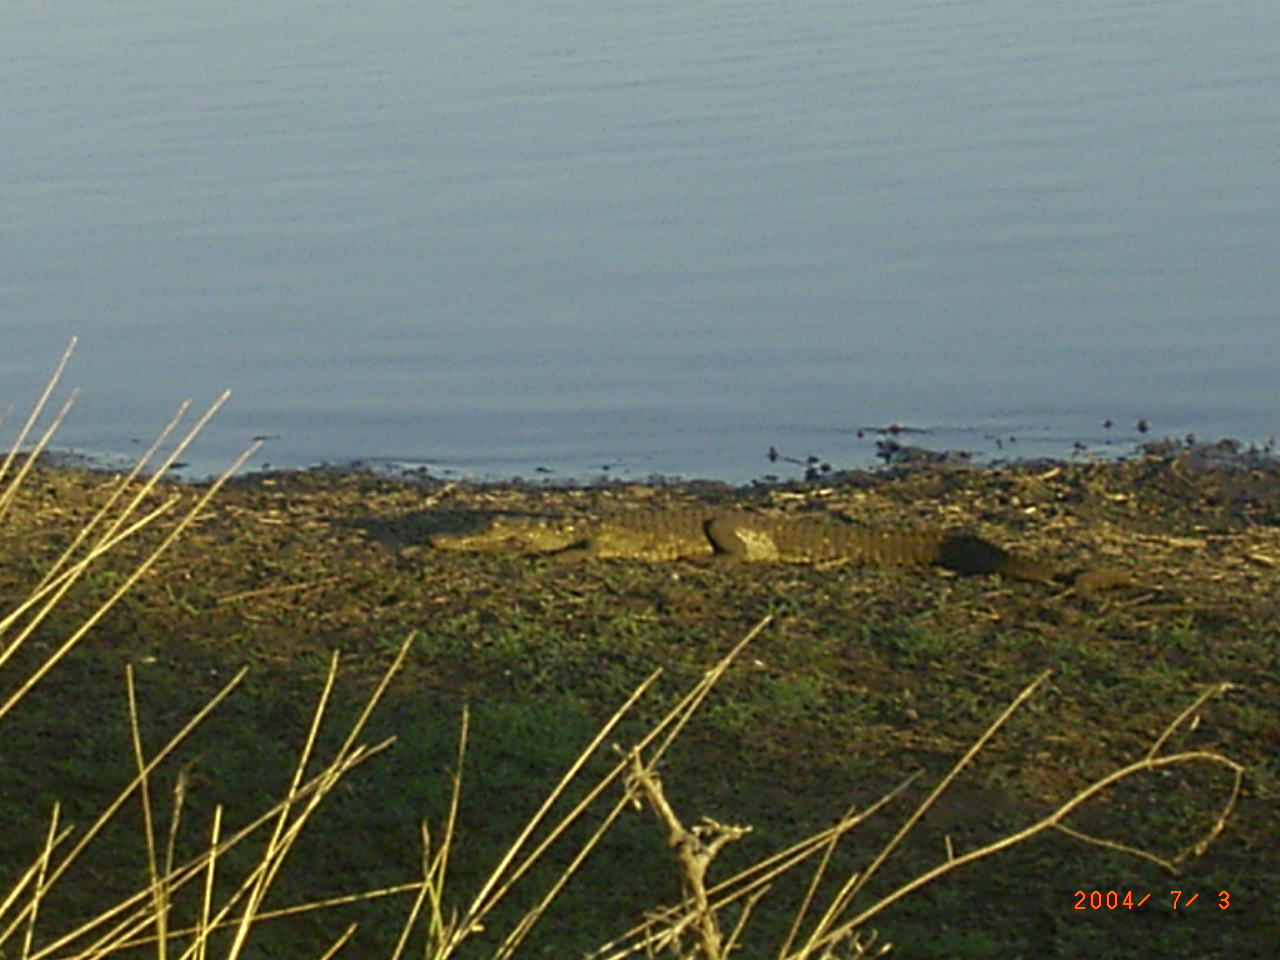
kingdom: Animalia
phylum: Chordata
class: Crocodylia
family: Crocodylidae
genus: Crocodylus
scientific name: Crocodylus niloticus
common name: Nile crocodile
